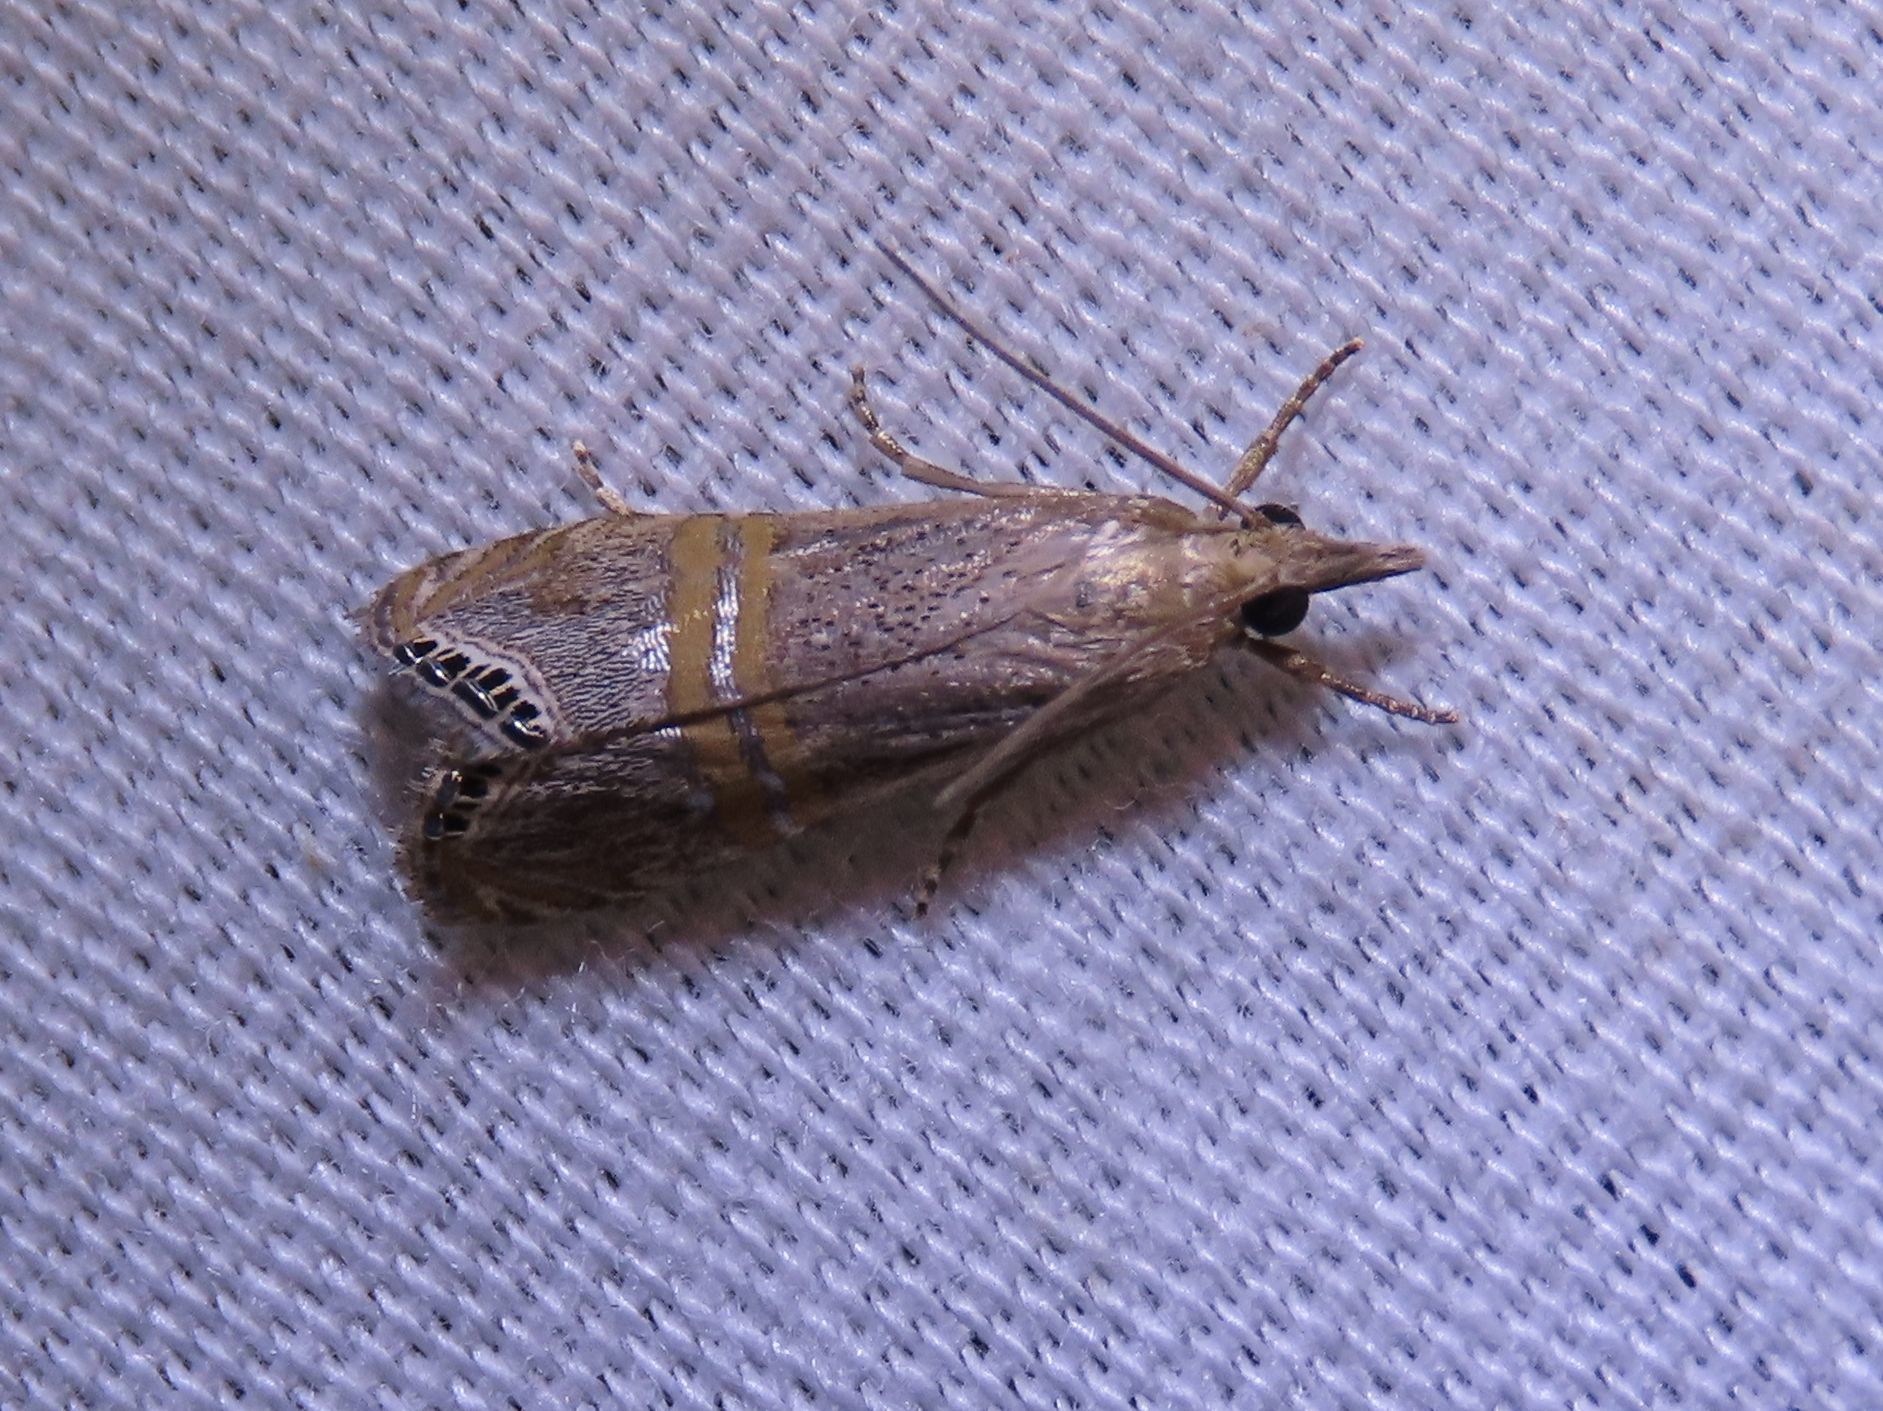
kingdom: Animalia
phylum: Arthropoda
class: Insecta
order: Lepidoptera
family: Crambidae
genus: Euchromius
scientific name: Euchromius ocellea
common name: Necklace veneer moth
